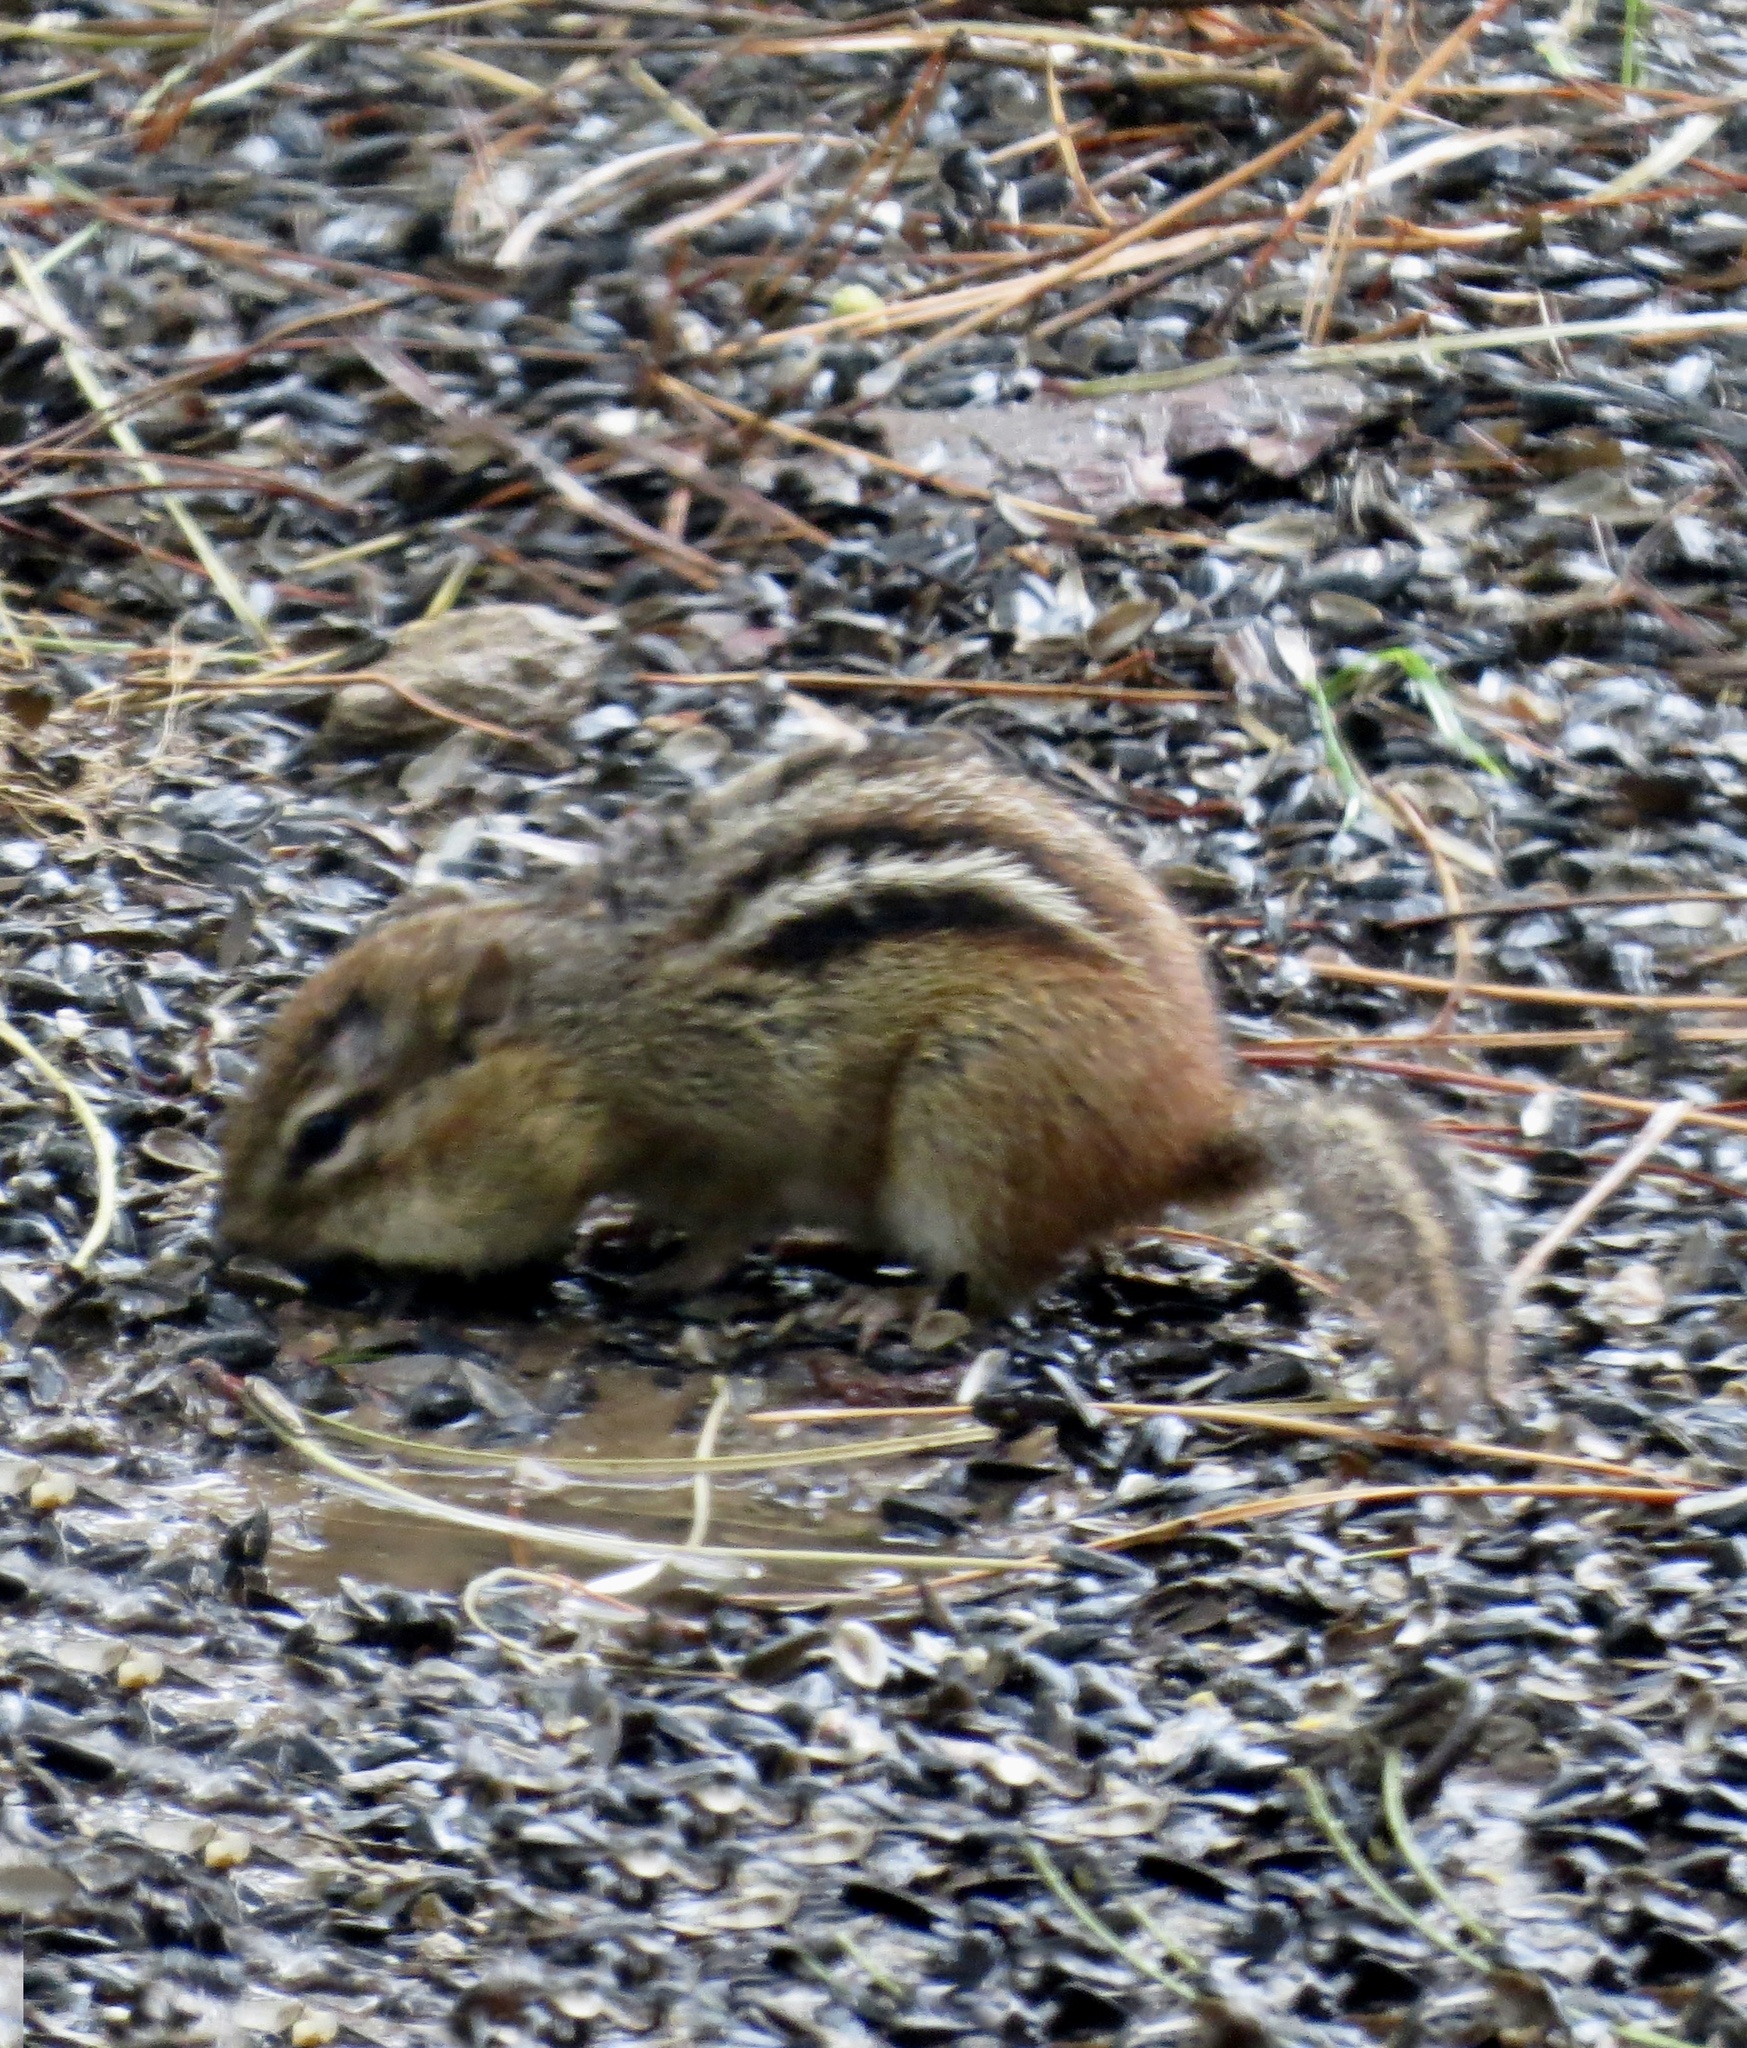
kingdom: Animalia
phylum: Chordata
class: Mammalia
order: Rodentia
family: Sciuridae
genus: Tamias
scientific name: Tamias striatus
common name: Eastern chipmunk
